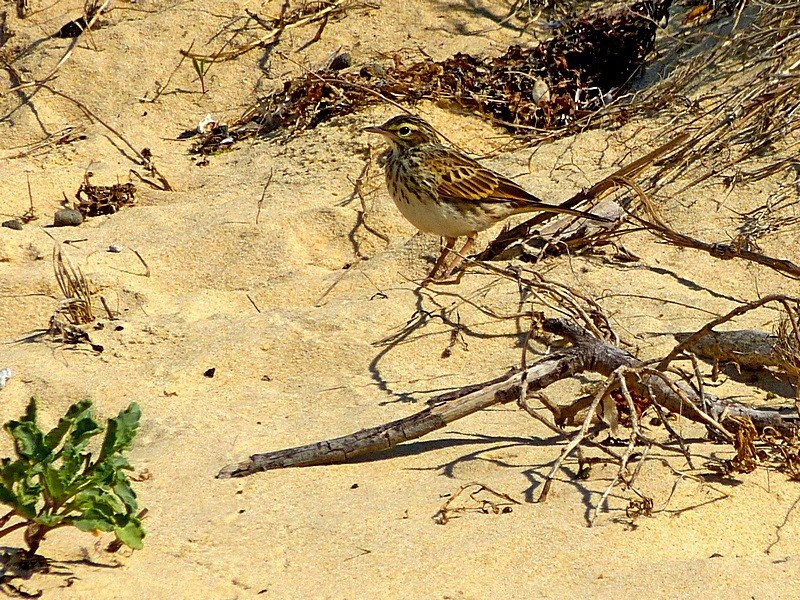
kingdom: Animalia
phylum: Chordata
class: Aves
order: Passeriformes
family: Motacillidae
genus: Anthus
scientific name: Anthus australis
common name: Australian pipit
